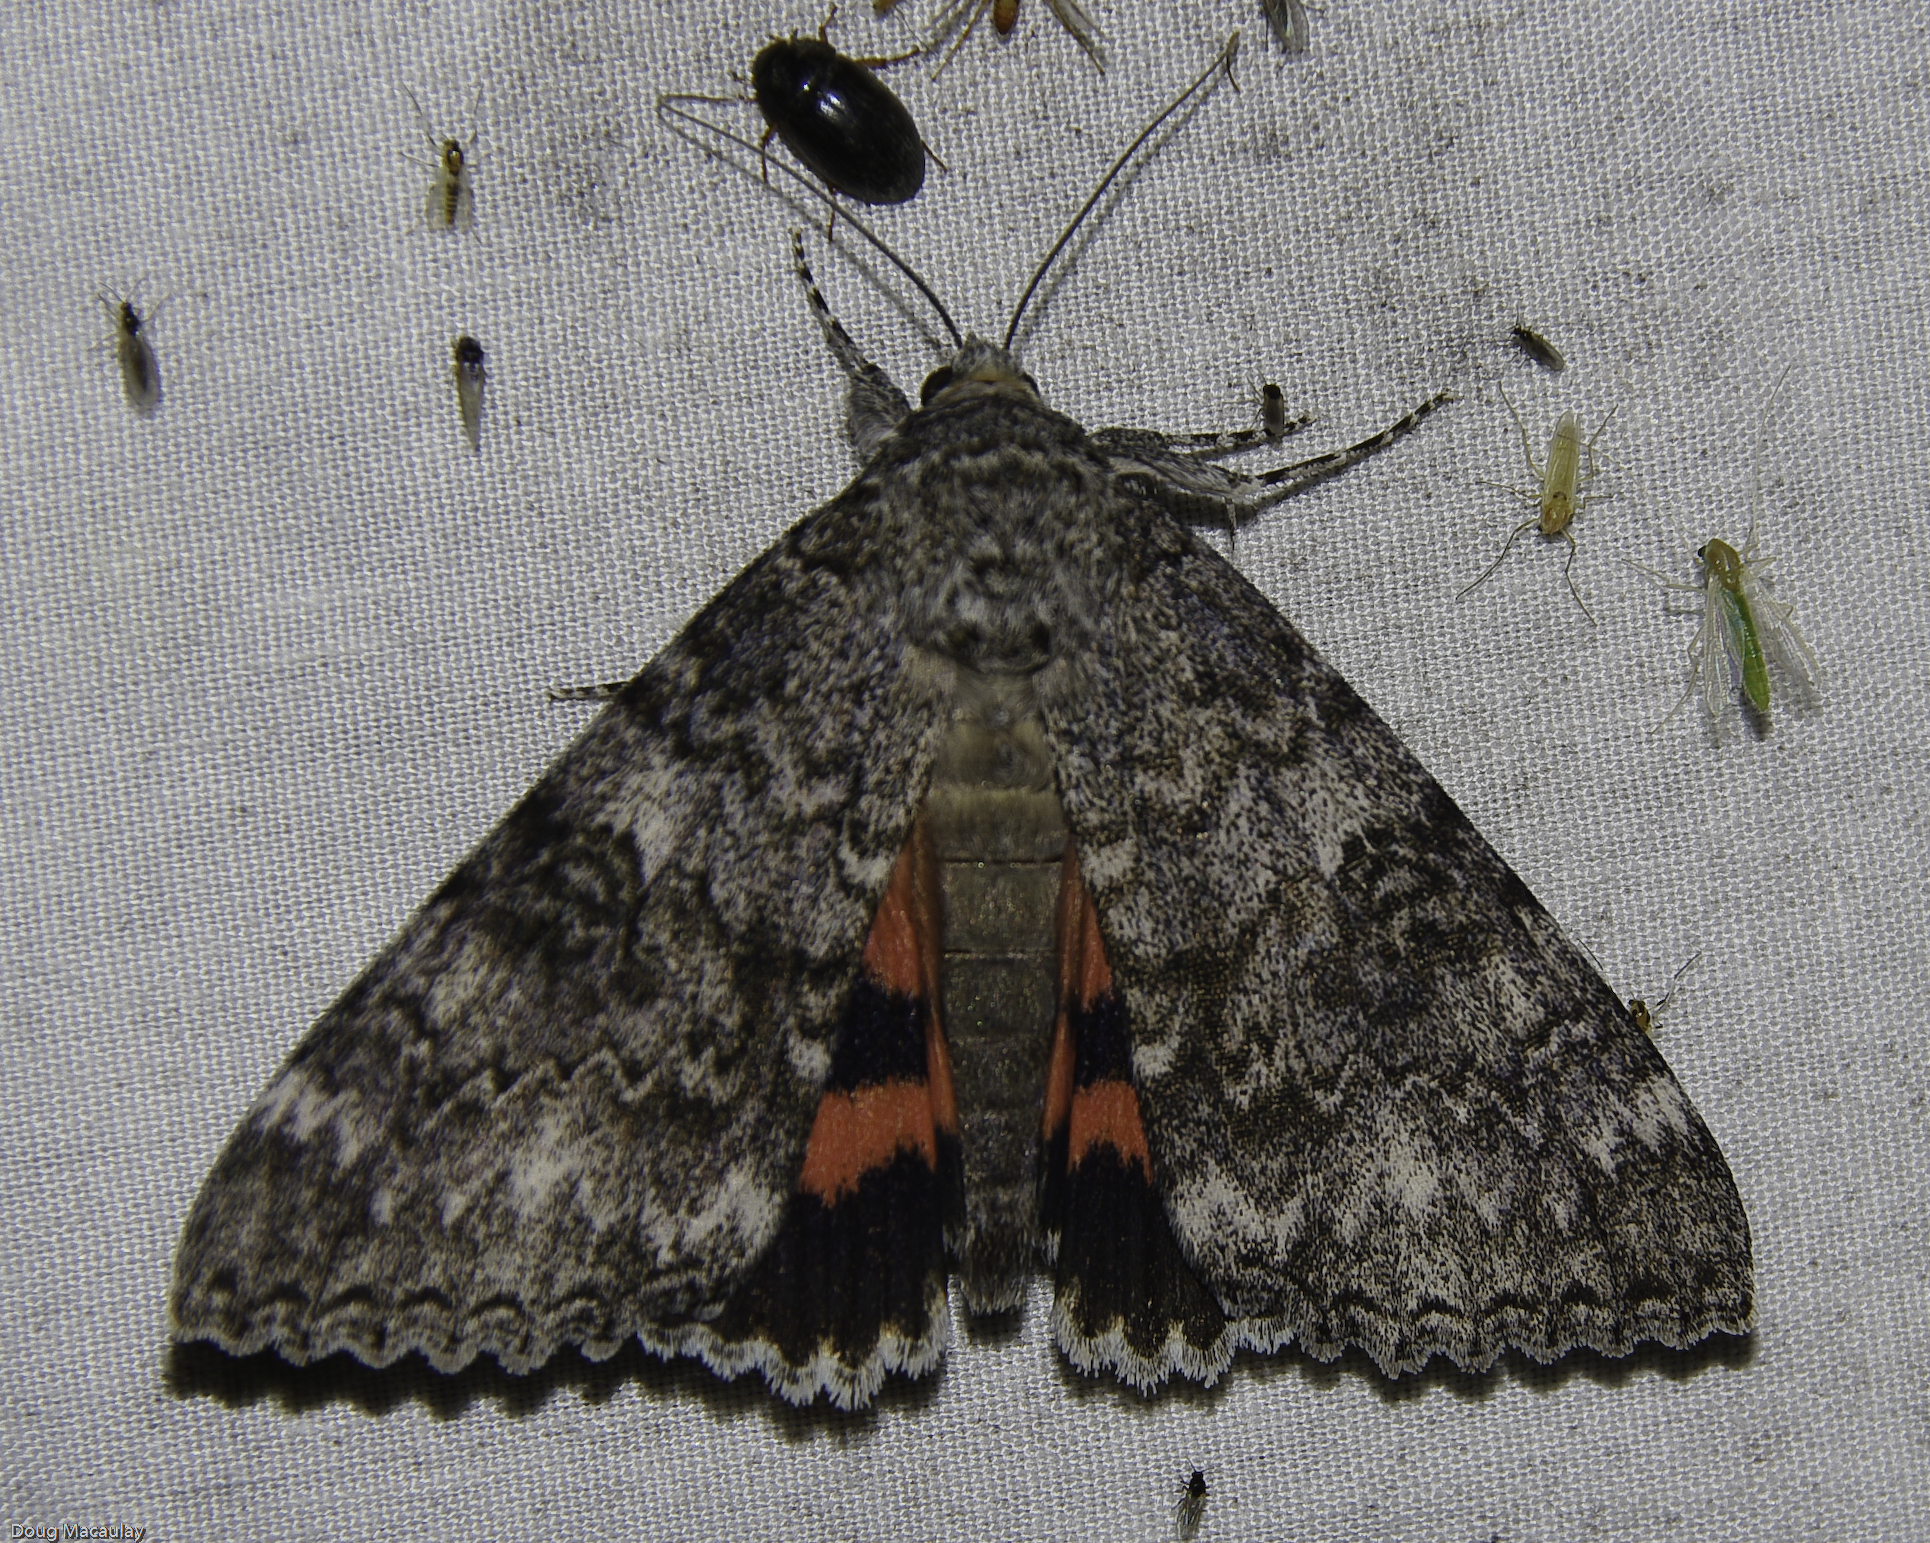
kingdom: Animalia
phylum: Arthropoda
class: Insecta
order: Lepidoptera
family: Erebidae
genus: Catocala
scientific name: Catocala unijuga
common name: Once-married underwing
